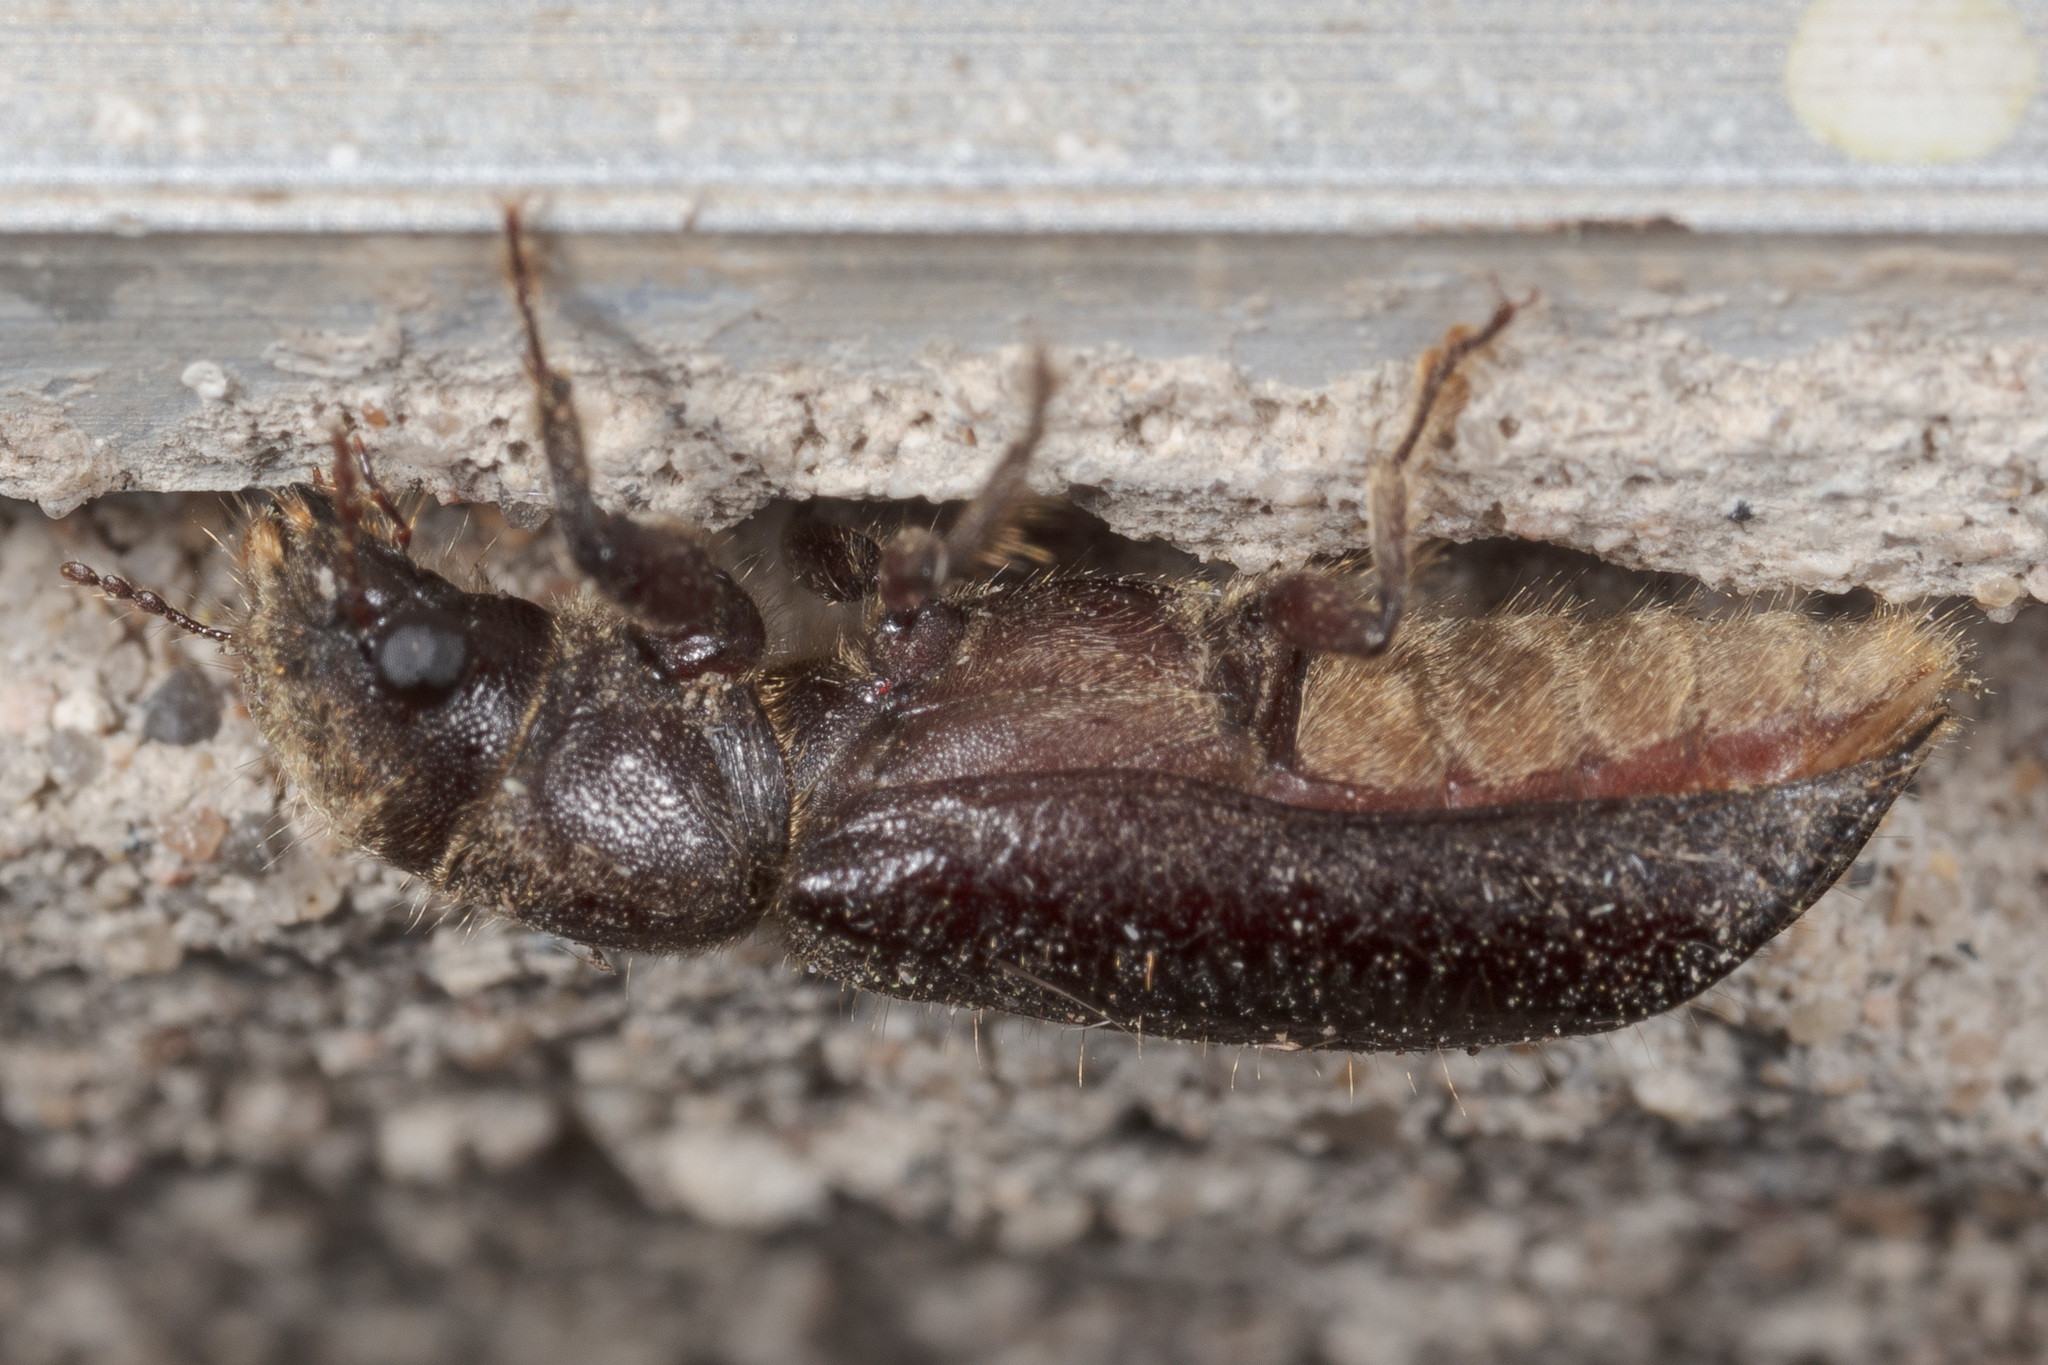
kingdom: Animalia
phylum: Arthropoda
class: Insecta
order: Coleoptera
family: Bostrichidae
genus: Melalgus
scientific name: Melalgus plicatus
